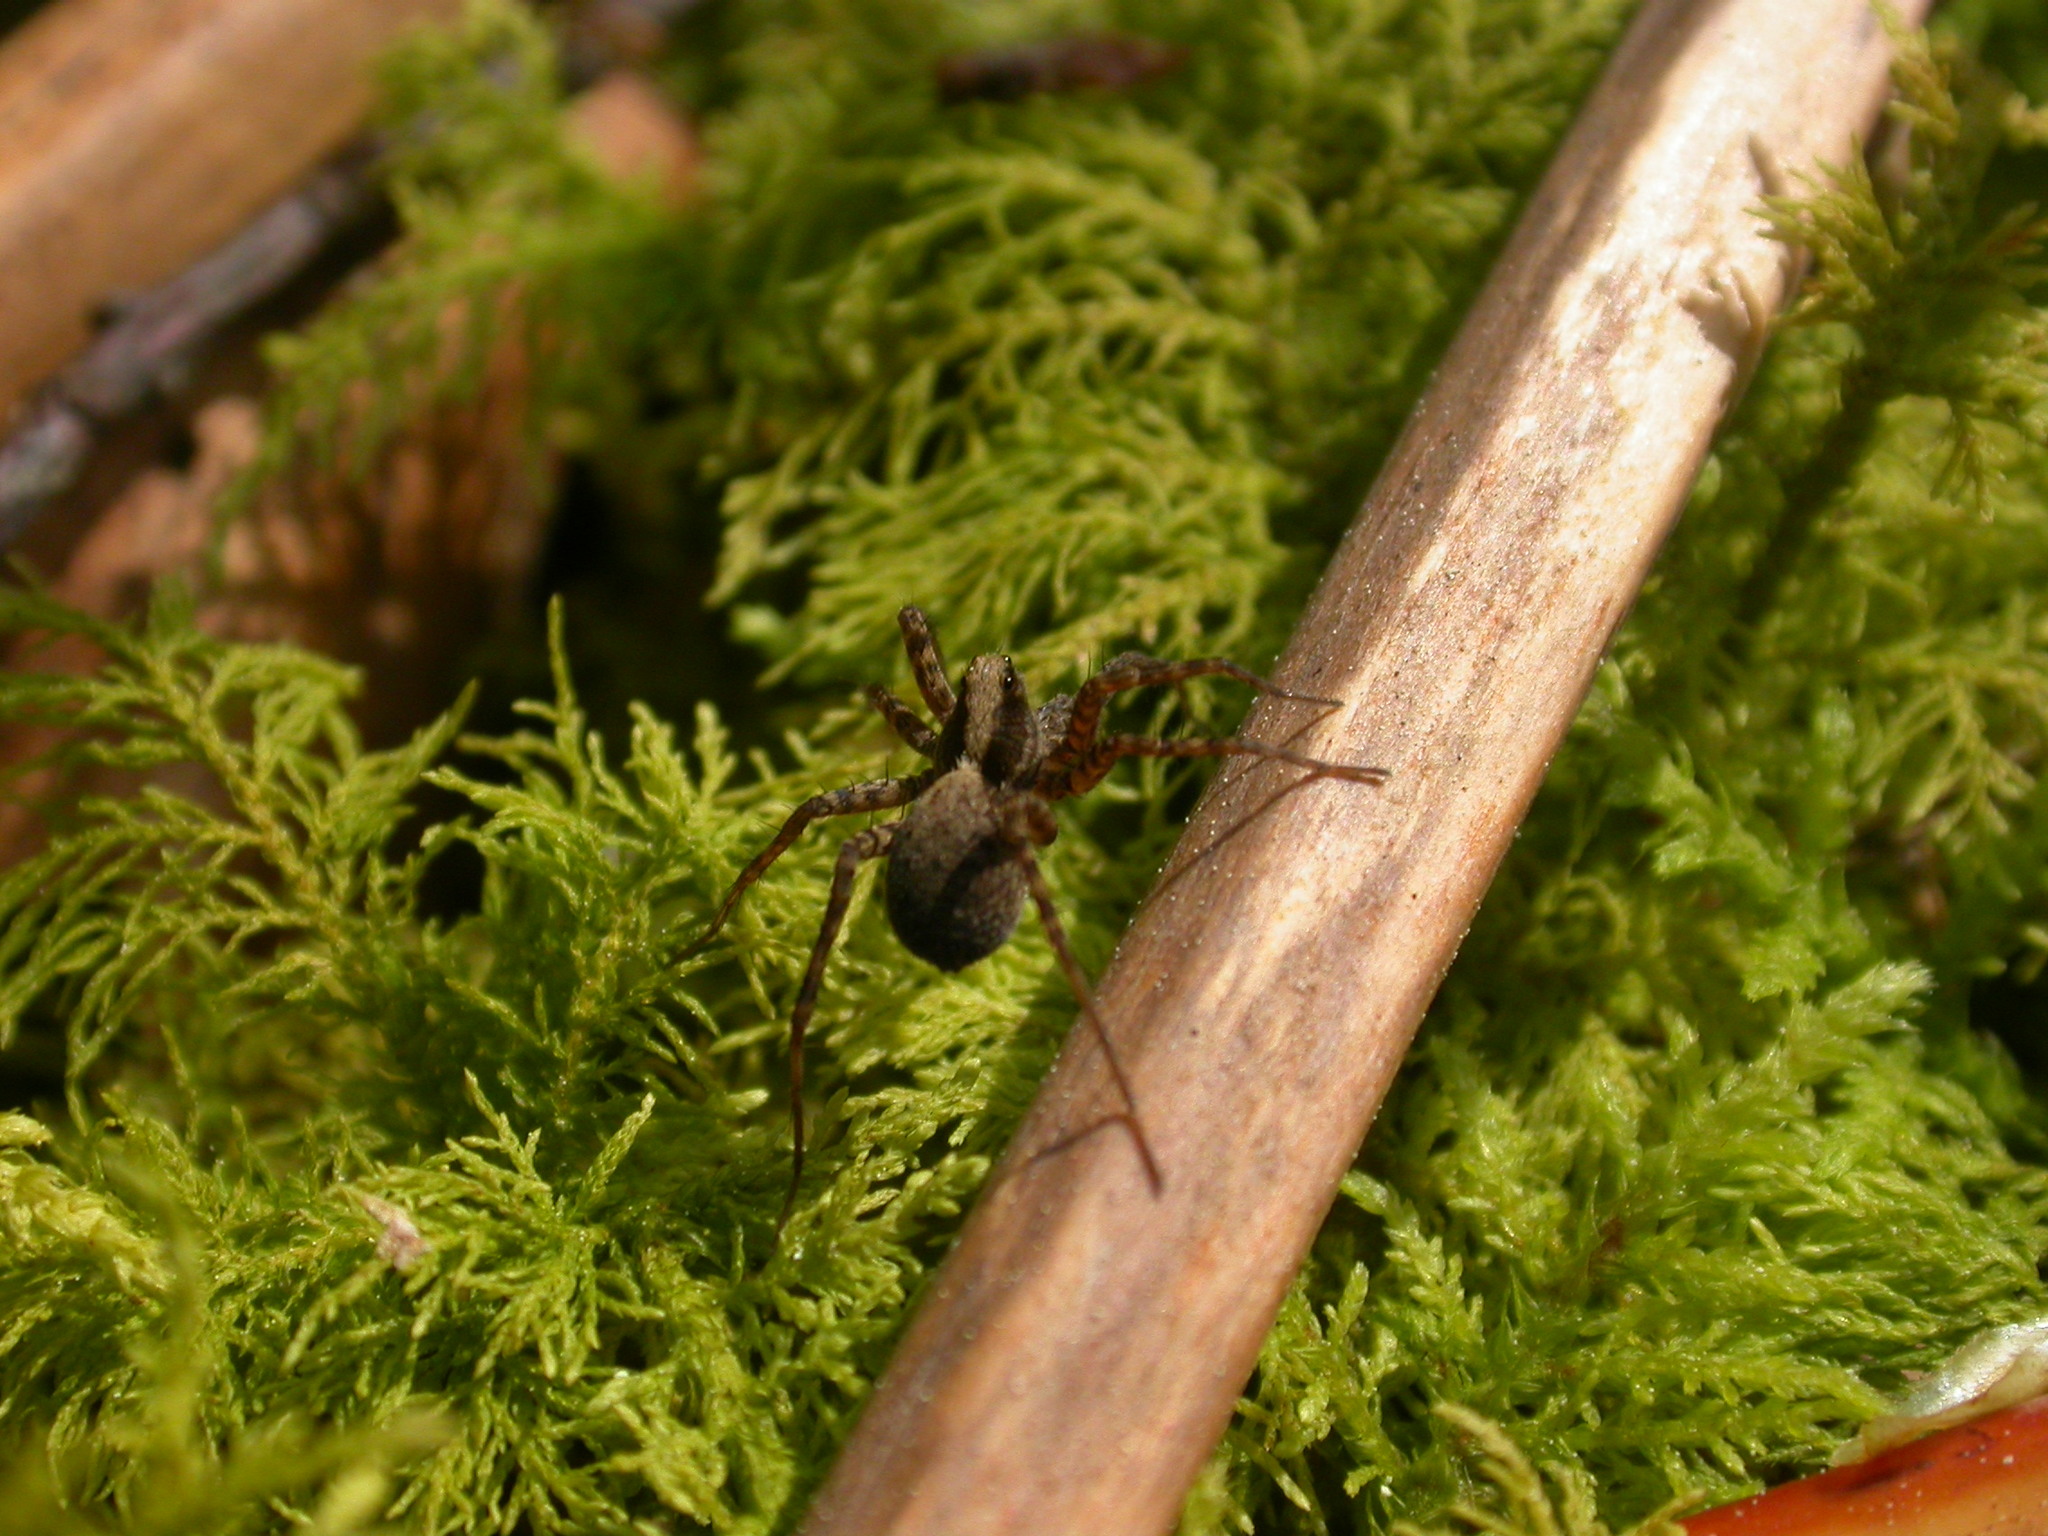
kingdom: Animalia
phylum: Arthropoda
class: Arachnida
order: Araneae
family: Lycosidae
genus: Pardosa
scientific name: Pardosa
